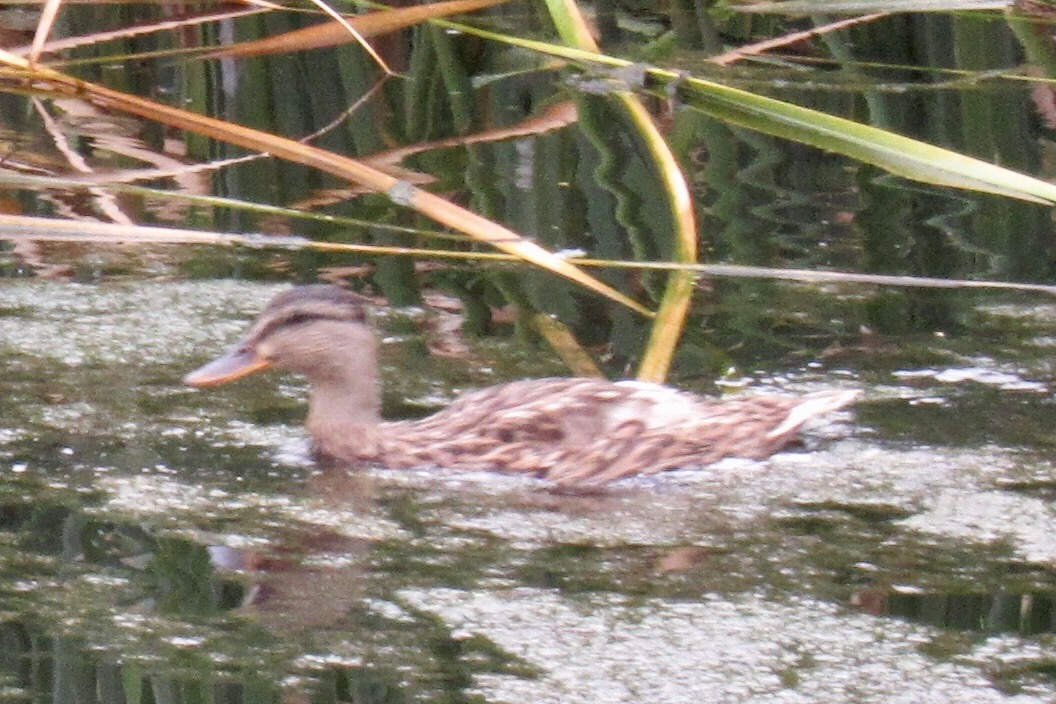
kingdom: Animalia
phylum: Chordata
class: Aves
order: Anseriformes
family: Anatidae
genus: Anas
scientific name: Anas platyrhynchos
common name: Mallard
